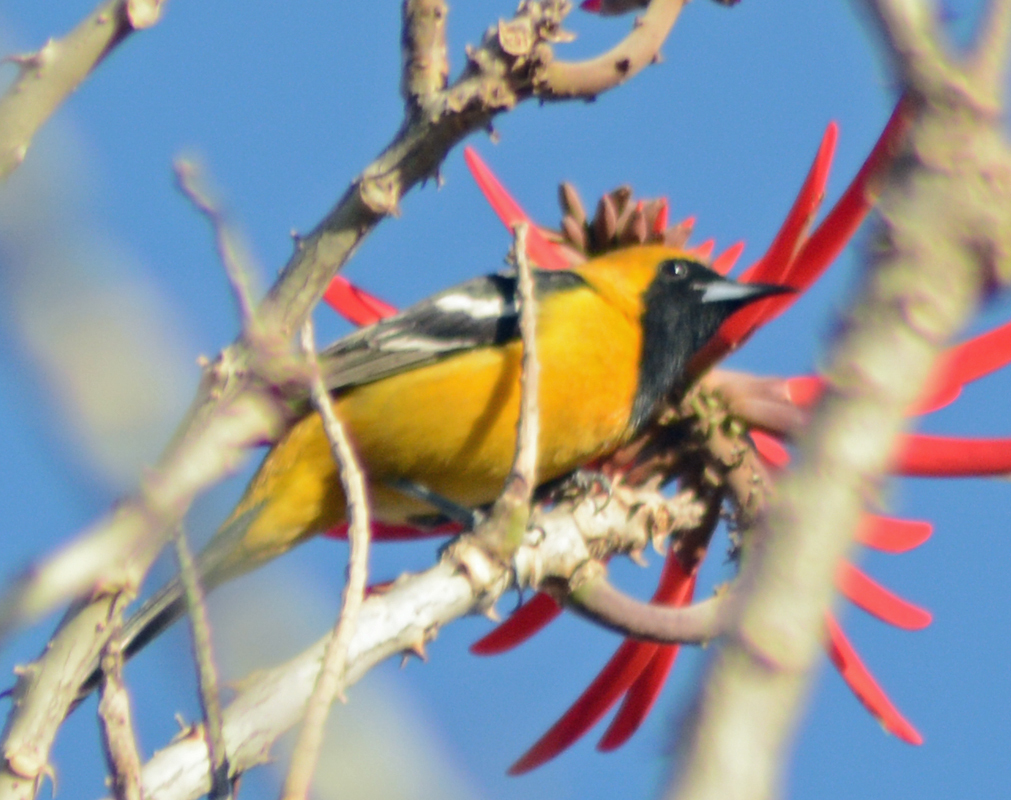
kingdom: Animalia
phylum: Chordata
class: Aves
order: Passeriformes
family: Icteridae
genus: Icterus
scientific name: Icterus cucullatus
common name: Hooded oriole
